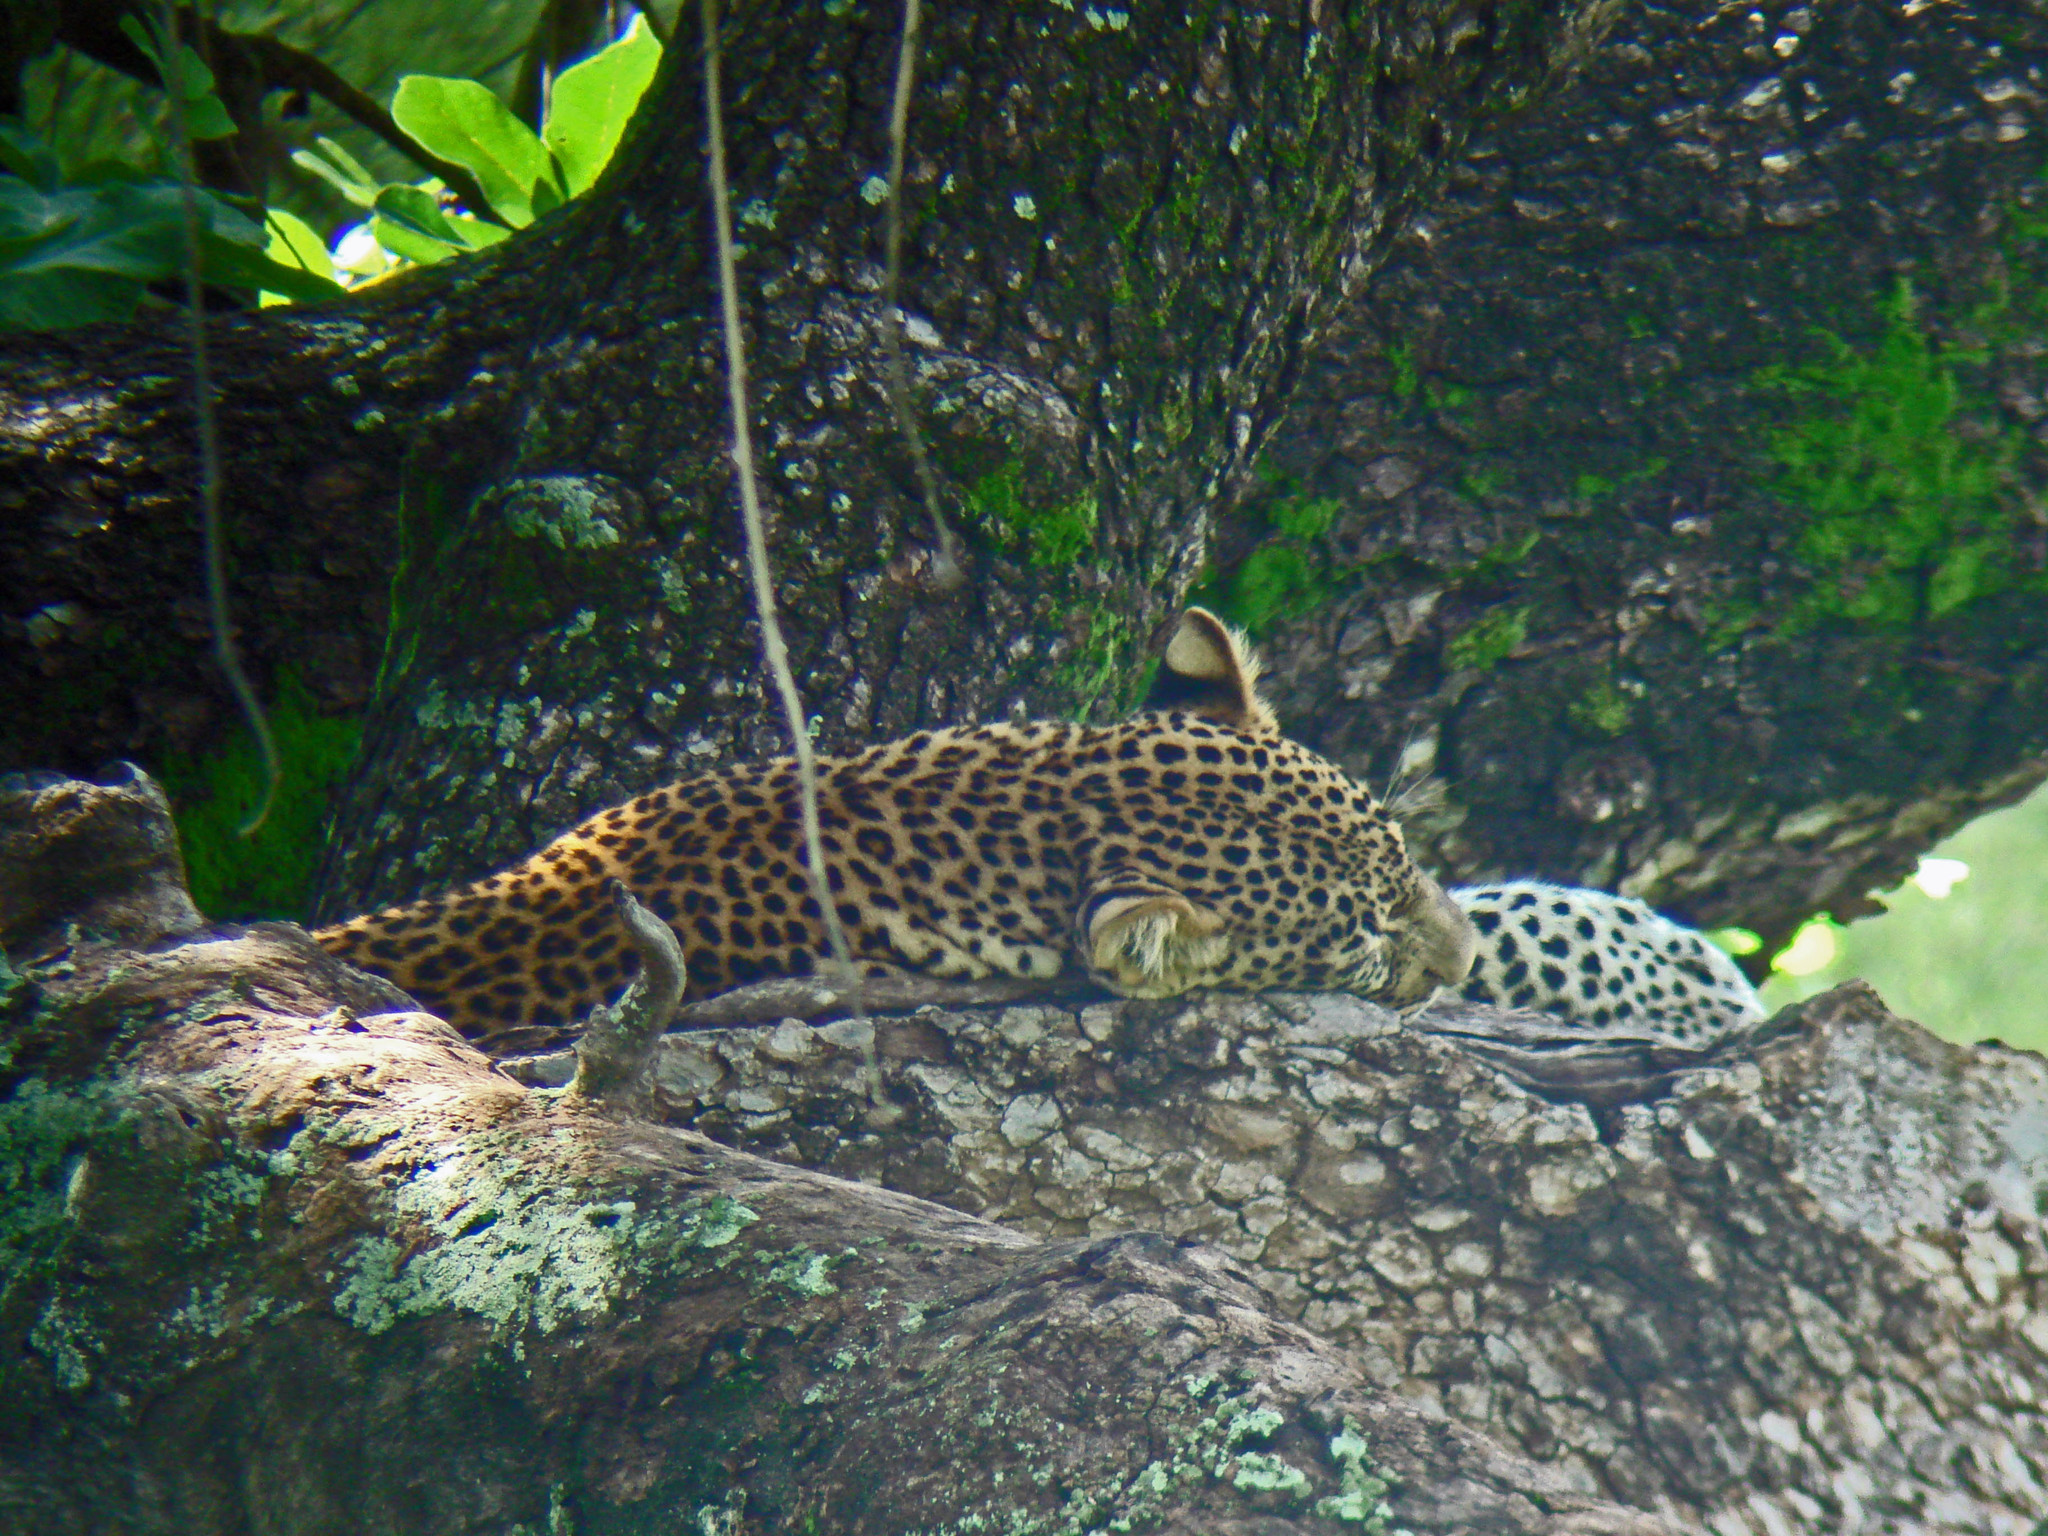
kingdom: Animalia
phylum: Chordata
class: Mammalia
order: Carnivora
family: Felidae
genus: Panthera
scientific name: Panthera pardus
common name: Leopard
